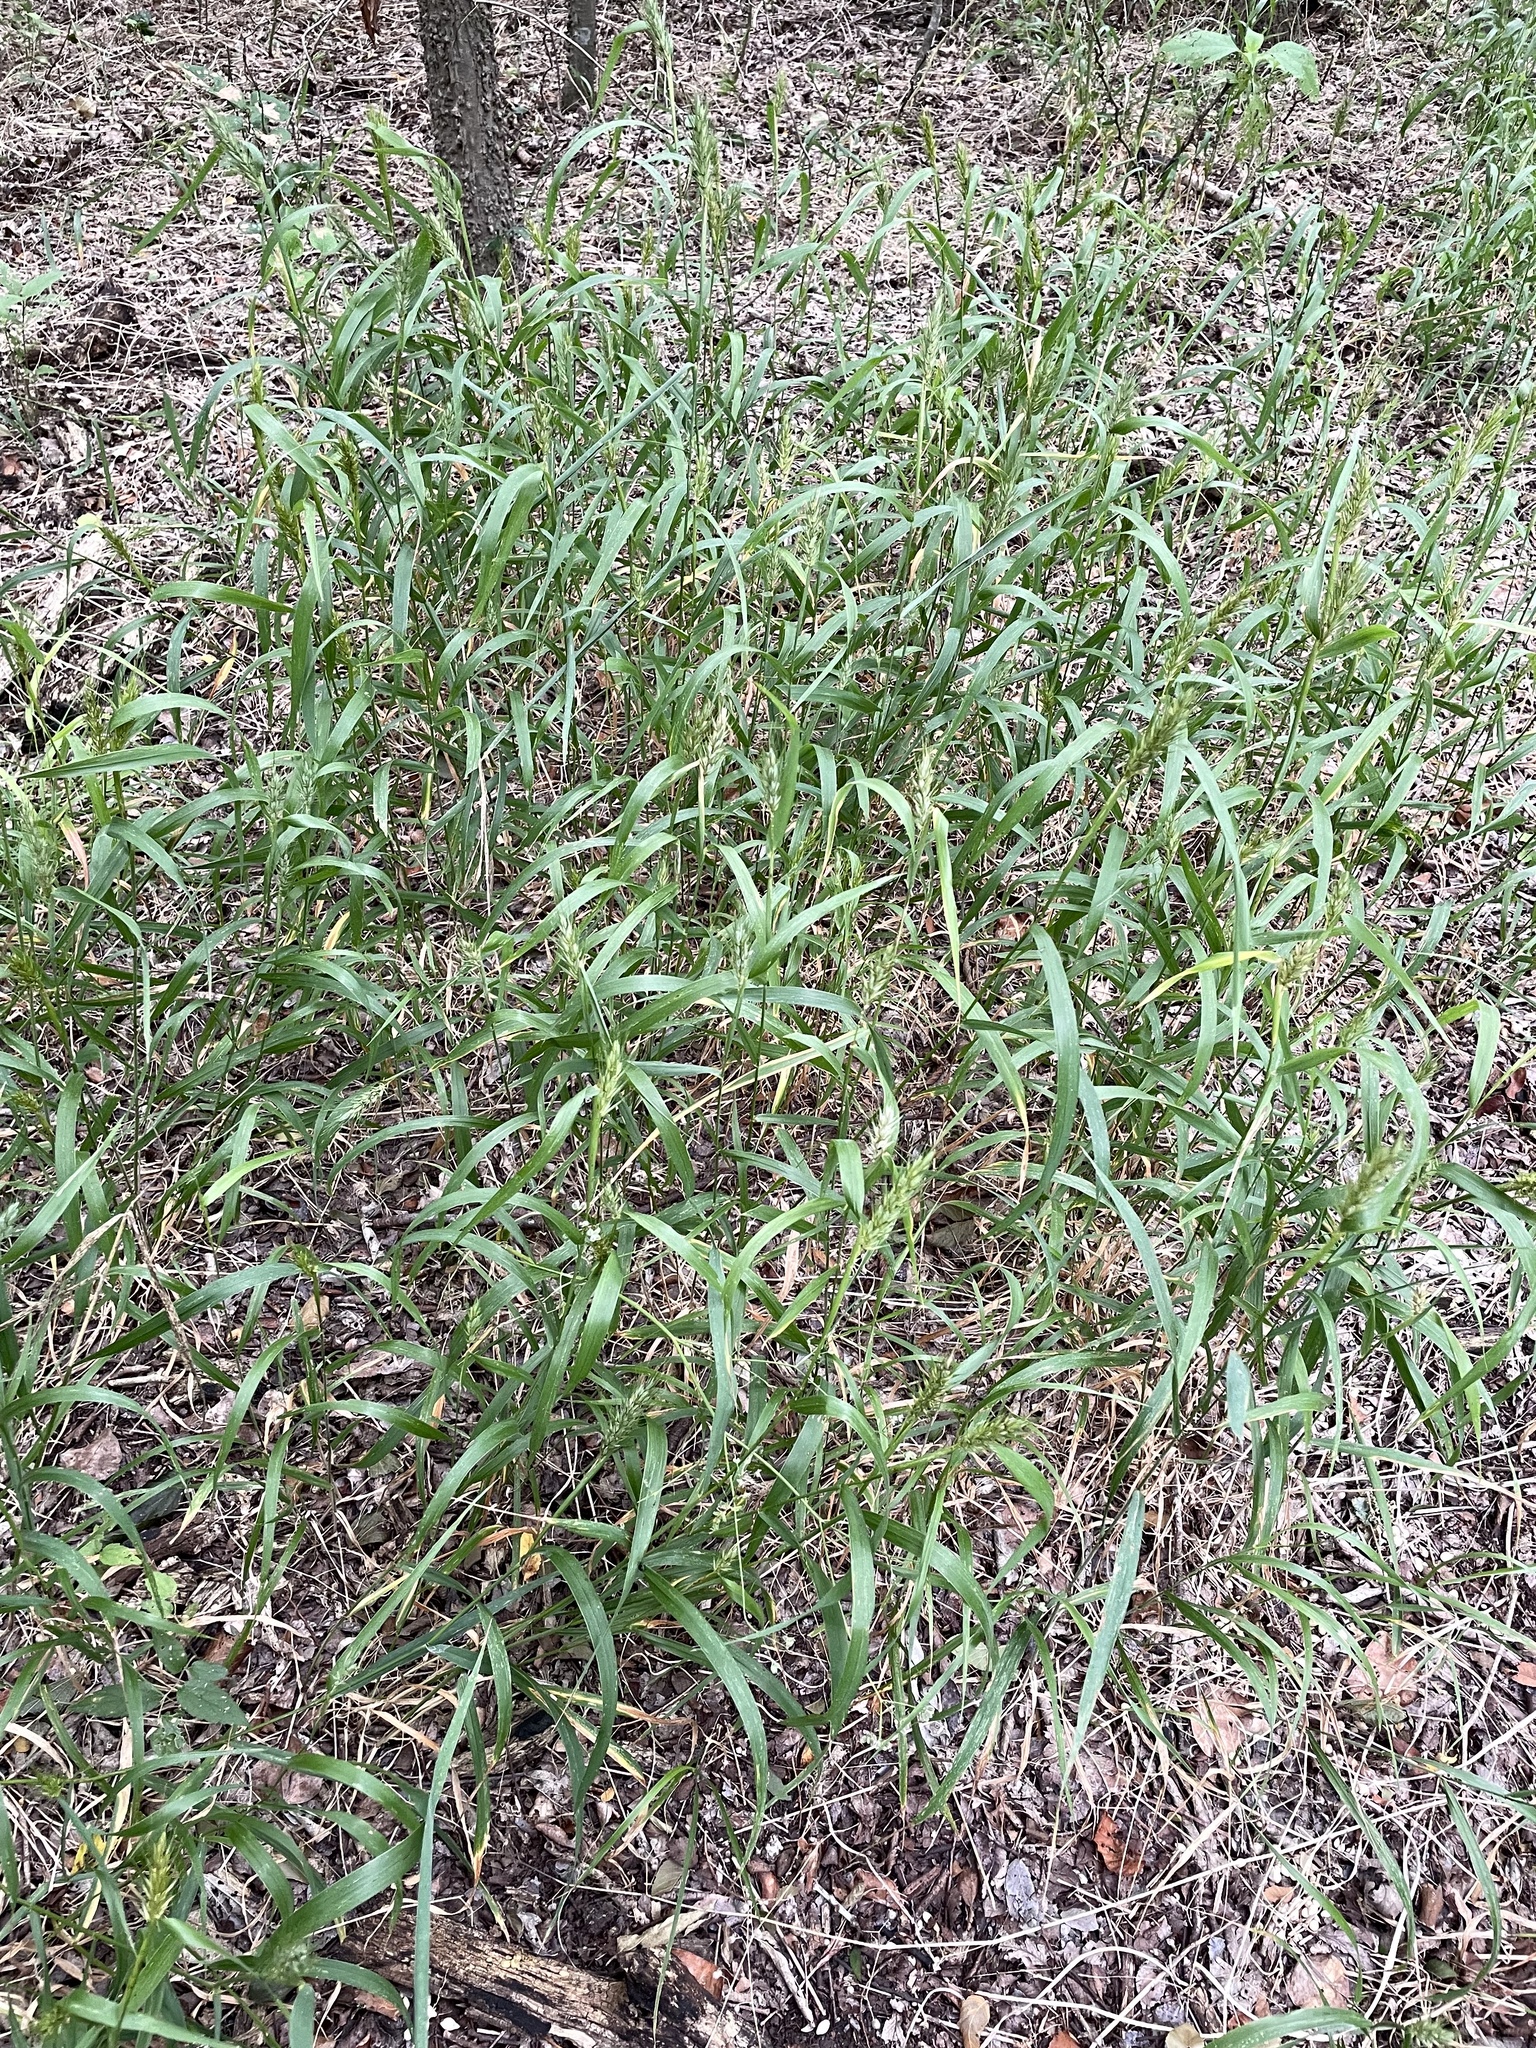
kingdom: Plantae
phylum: Tracheophyta
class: Liliopsida
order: Poales
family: Poaceae
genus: Elymus
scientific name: Elymus virginicus
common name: Common eastern wildrye
